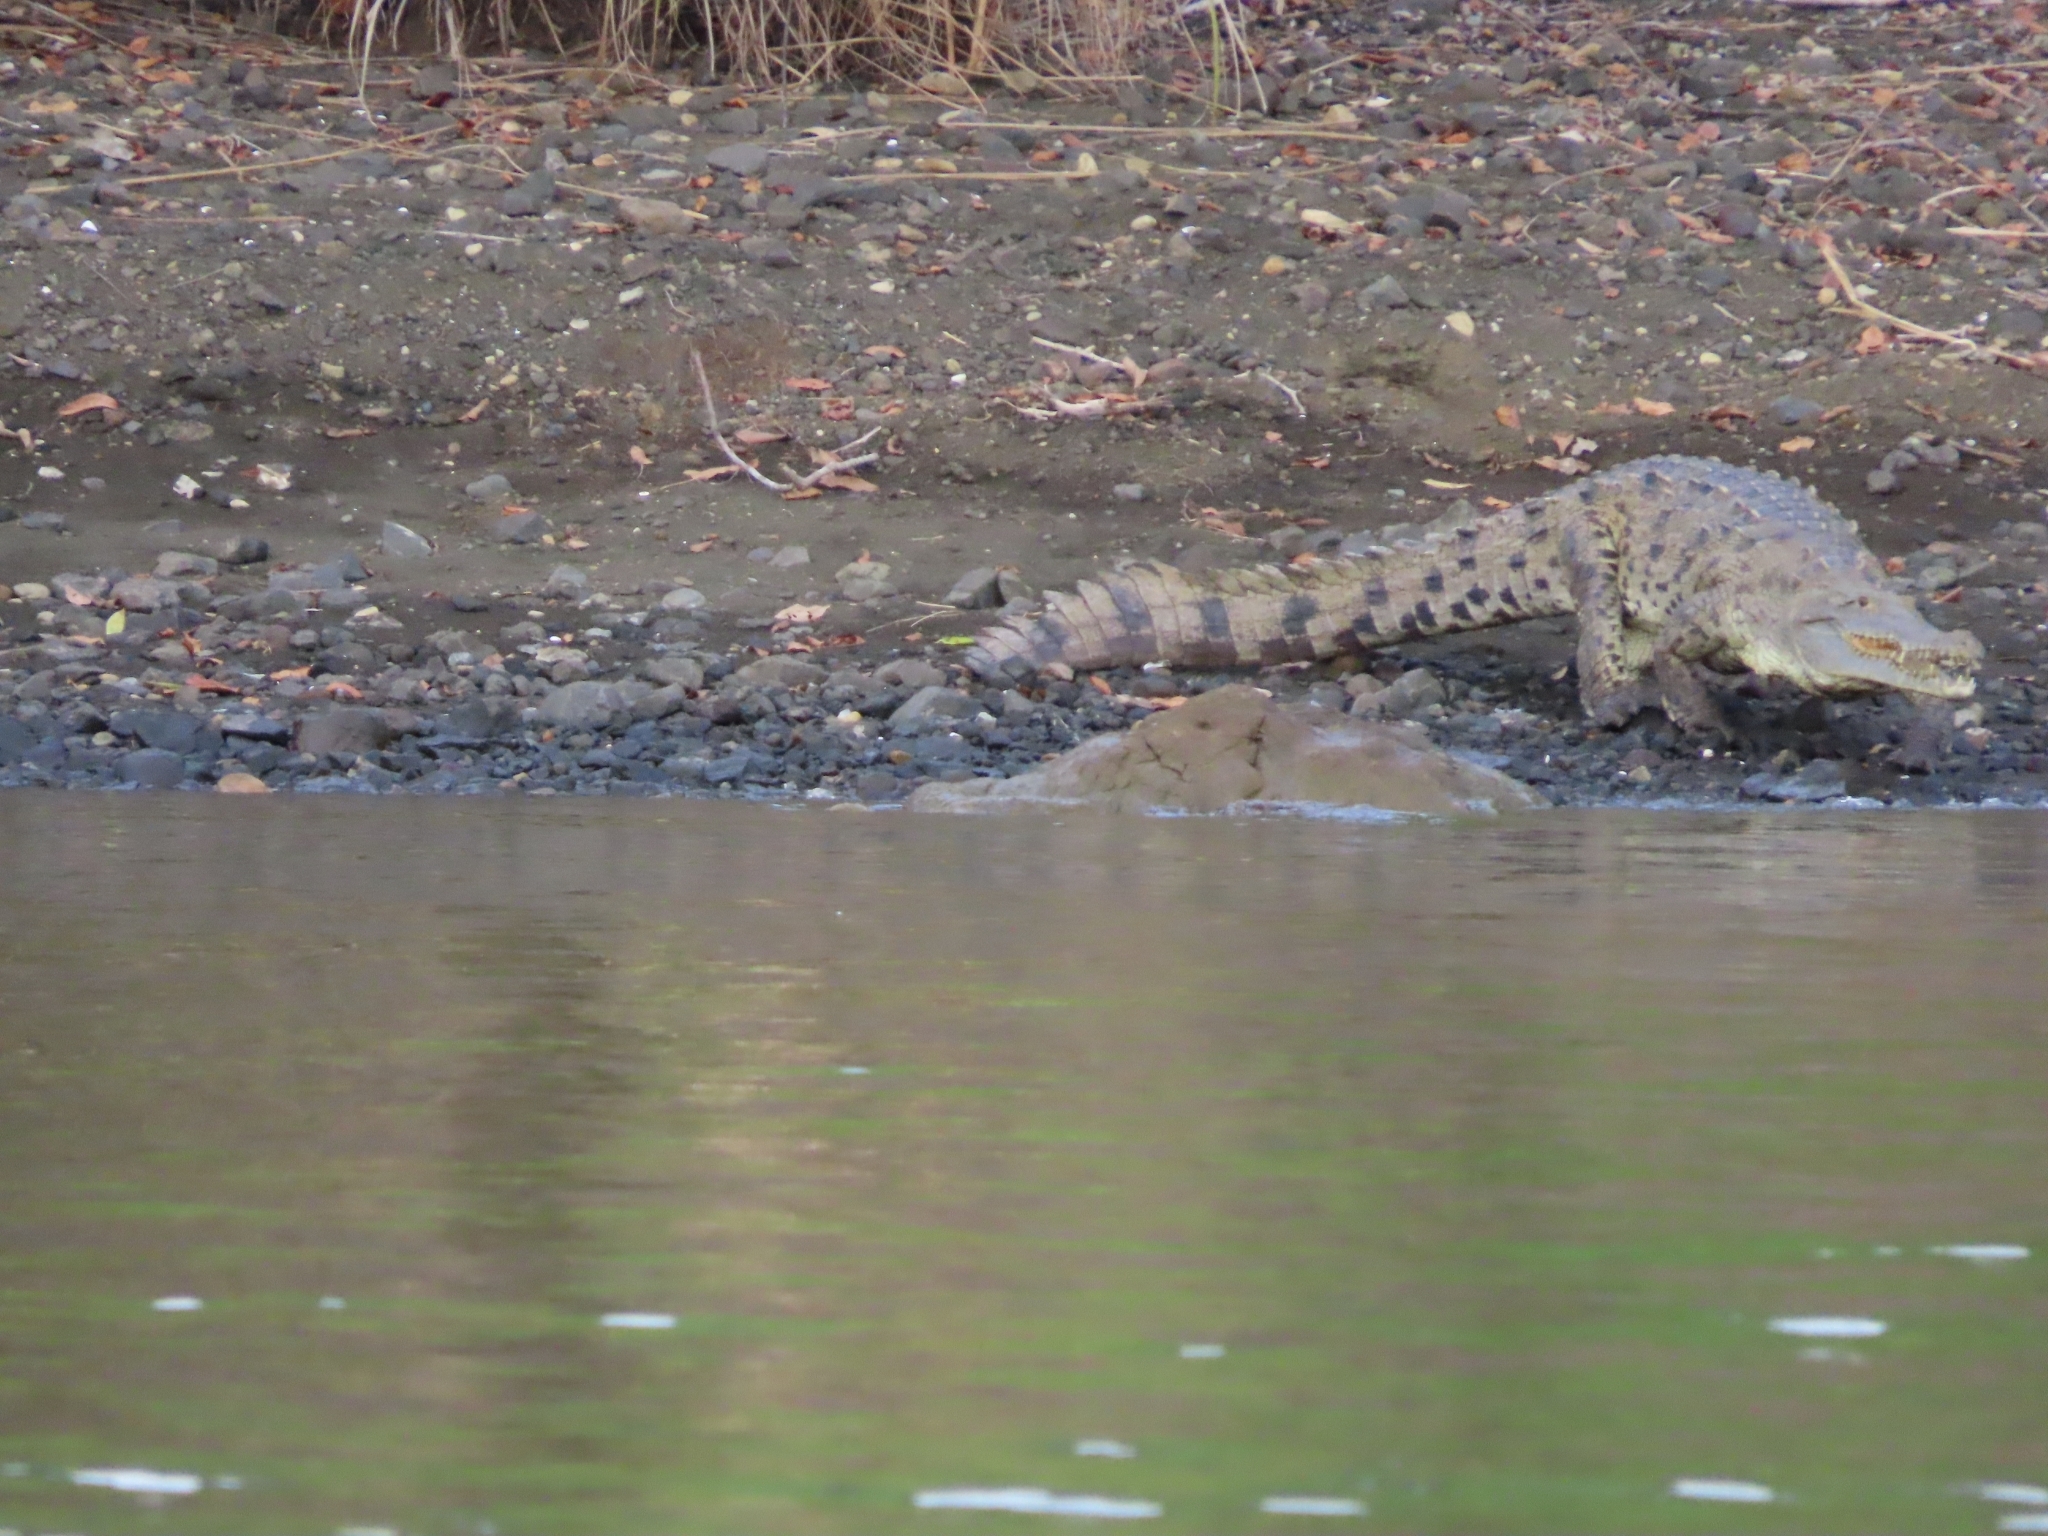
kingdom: Animalia
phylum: Chordata
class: Crocodylia
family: Crocodylidae
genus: Crocodylus
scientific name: Crocodylus acutus
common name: American crocodile
